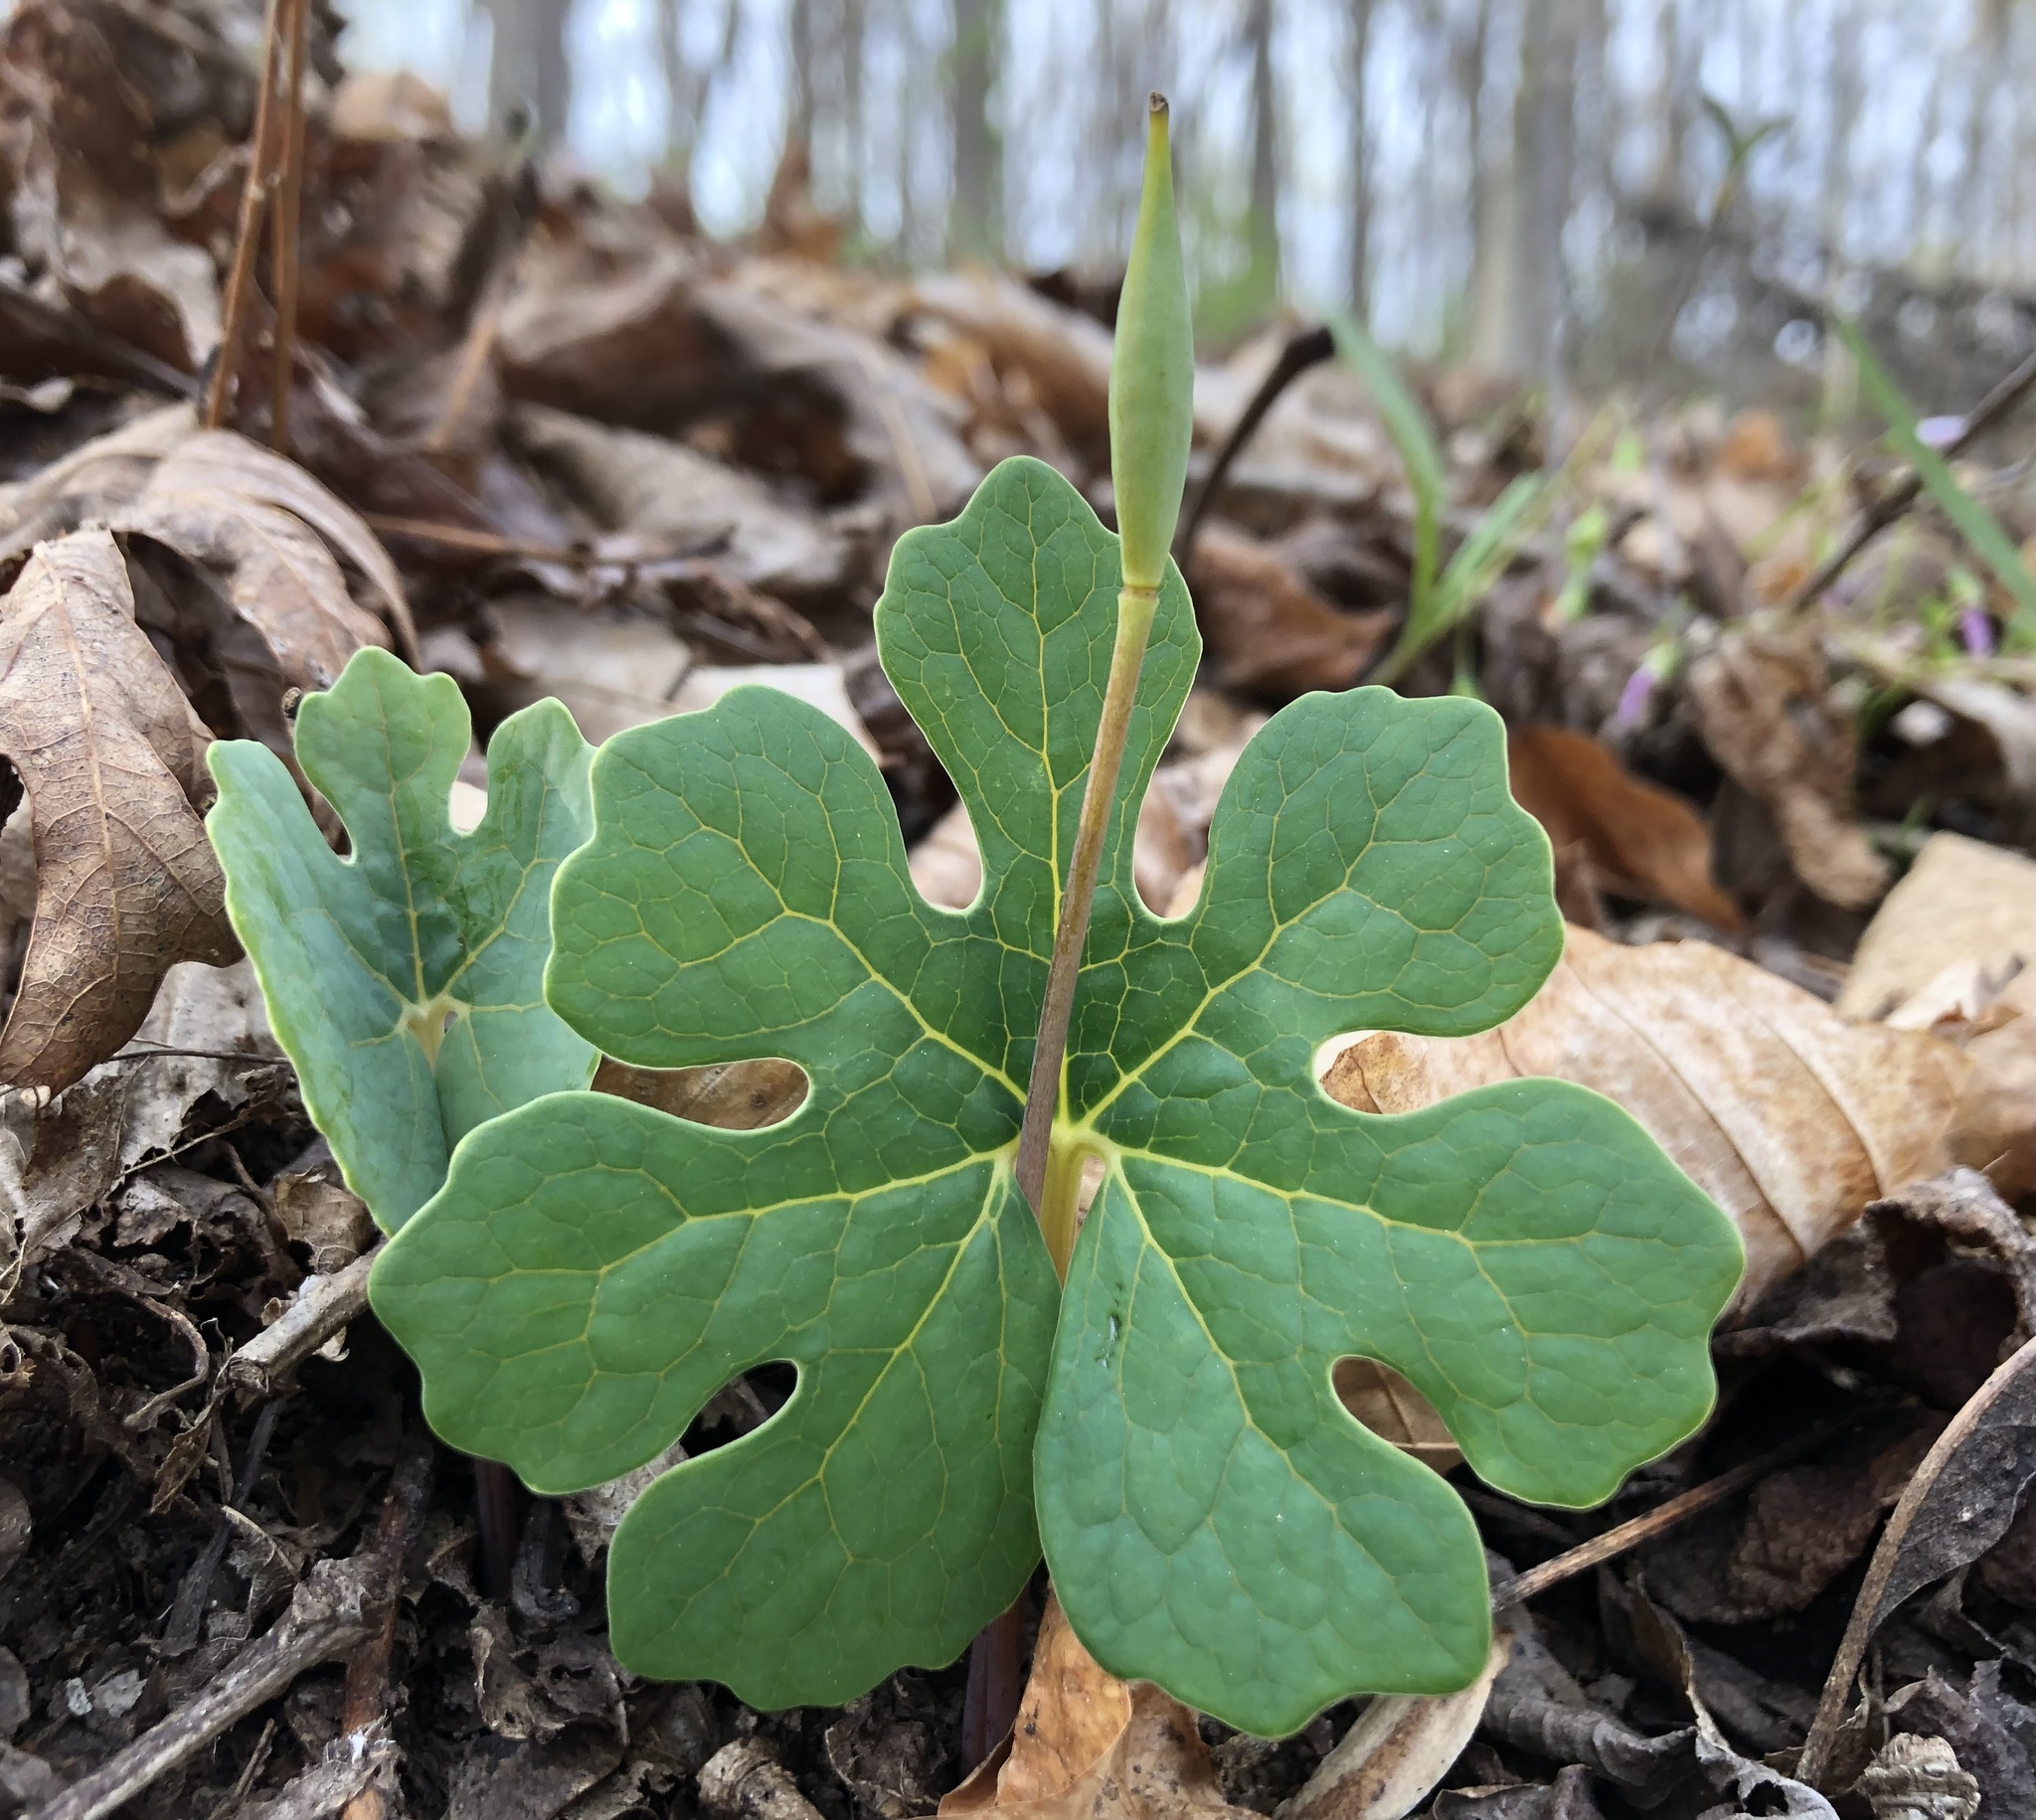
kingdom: Plantae
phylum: Tracheophyta
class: Magnoliopsida
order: Ranunculales
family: Papaveraceae
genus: Sanguinaria
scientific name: Sanguinaria canadensis
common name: Bloodroot
